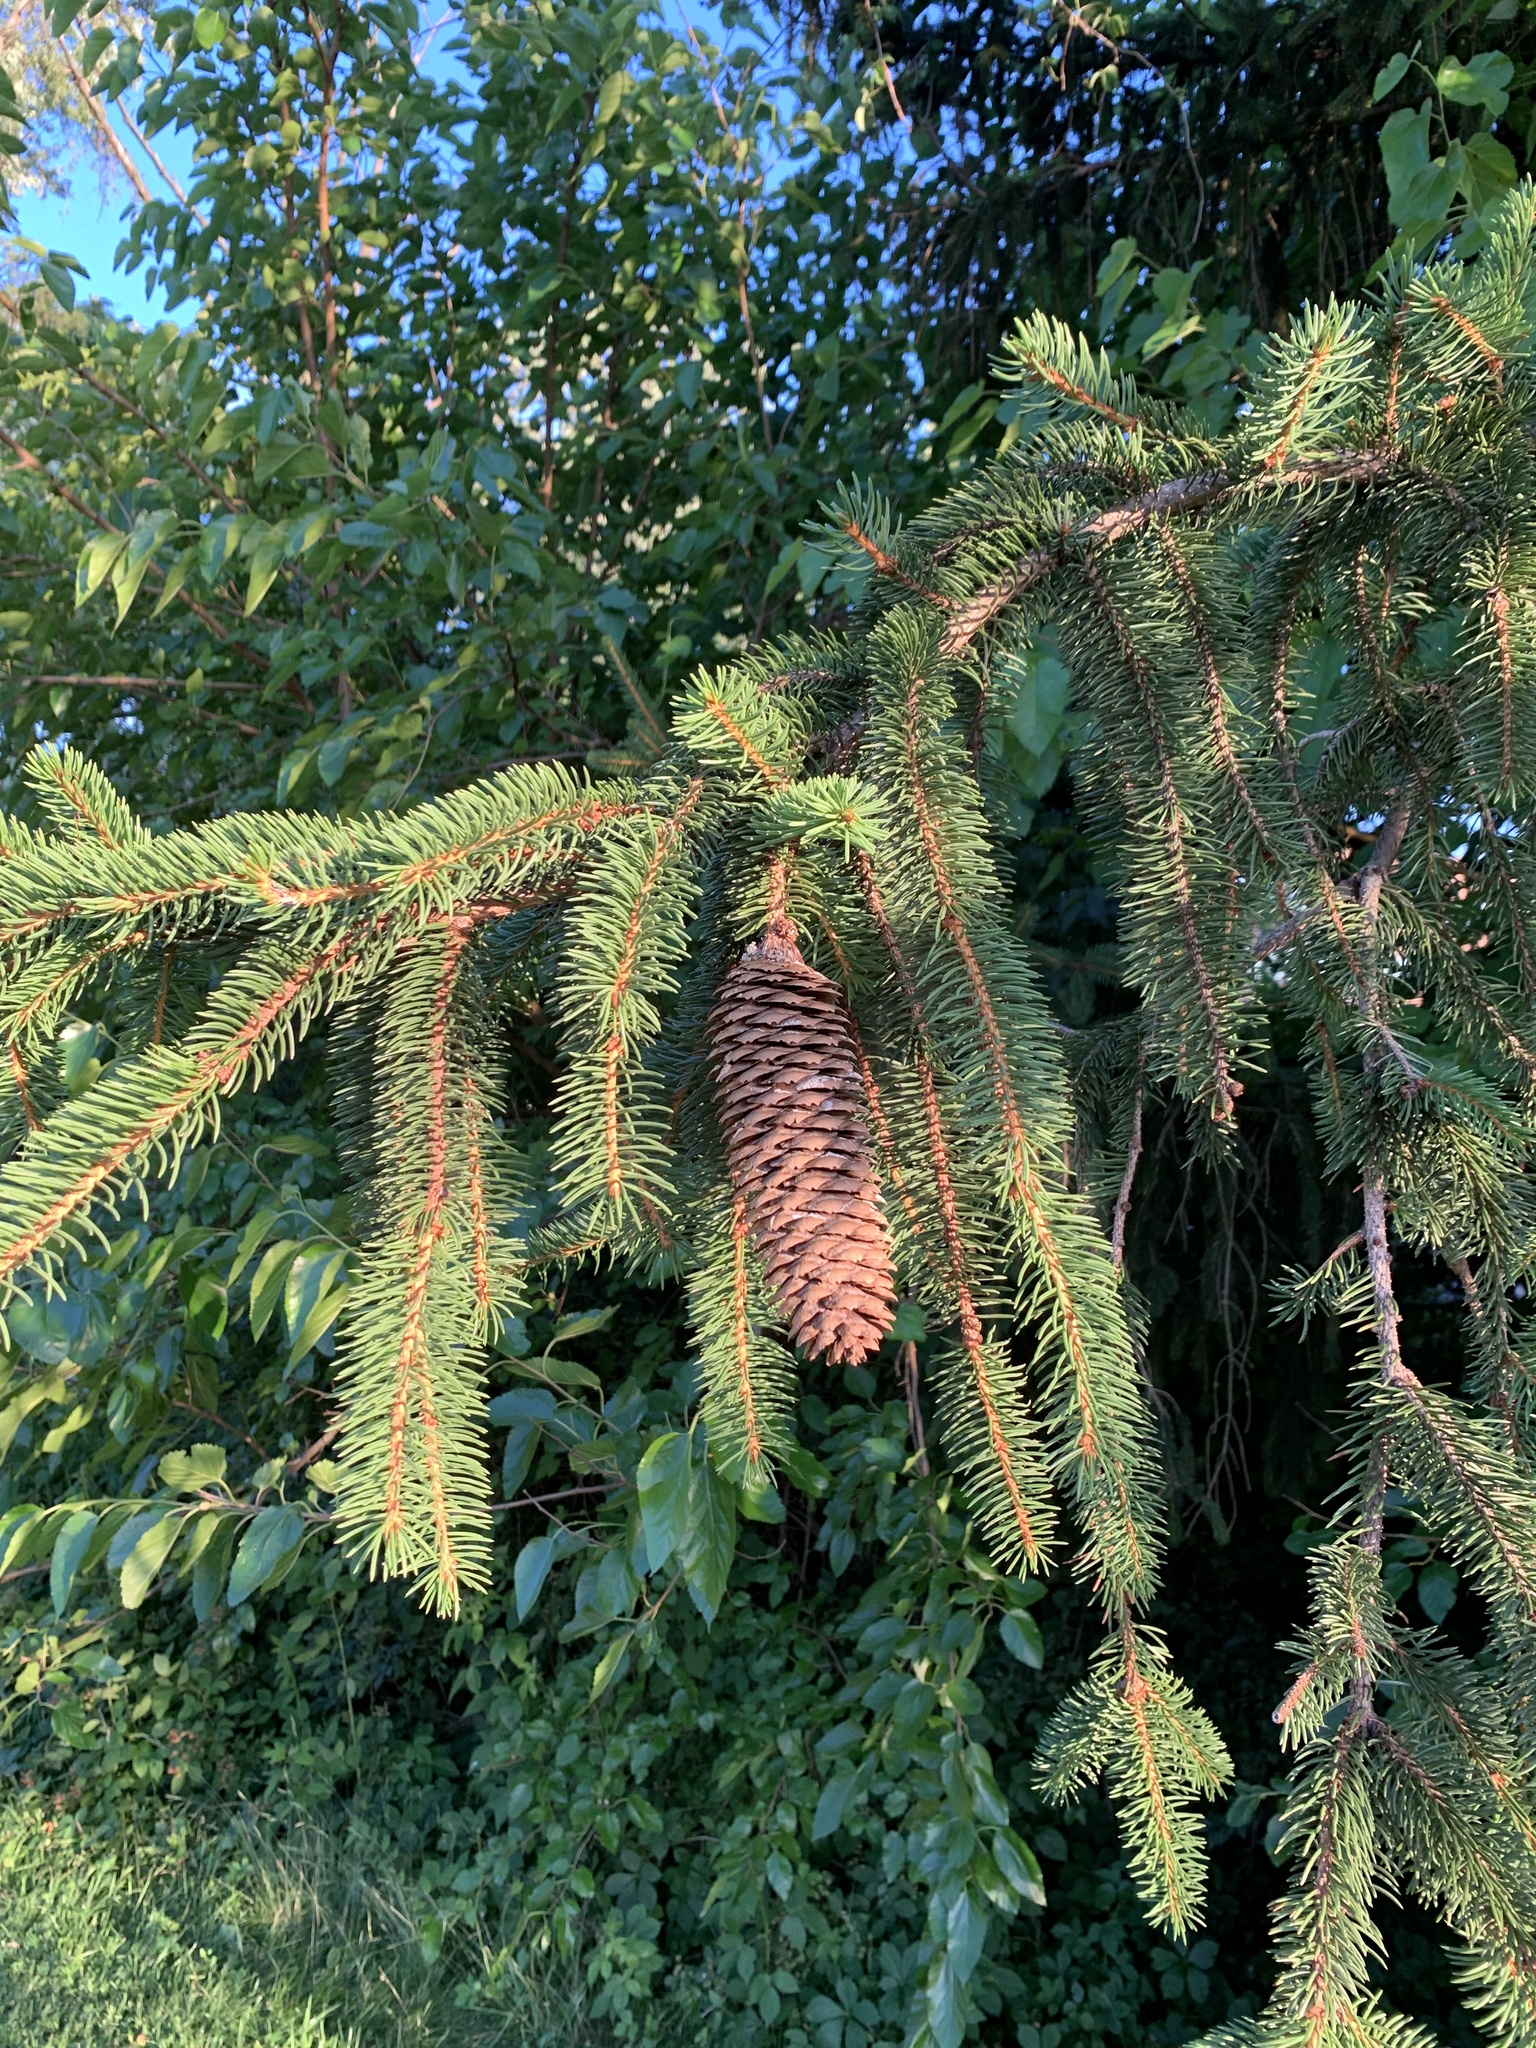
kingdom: Plantae
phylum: Tracheophyta
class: Pinopsida
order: Pinales
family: Pinaceae
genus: Picea
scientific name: Picea abies
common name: Norway spruce
